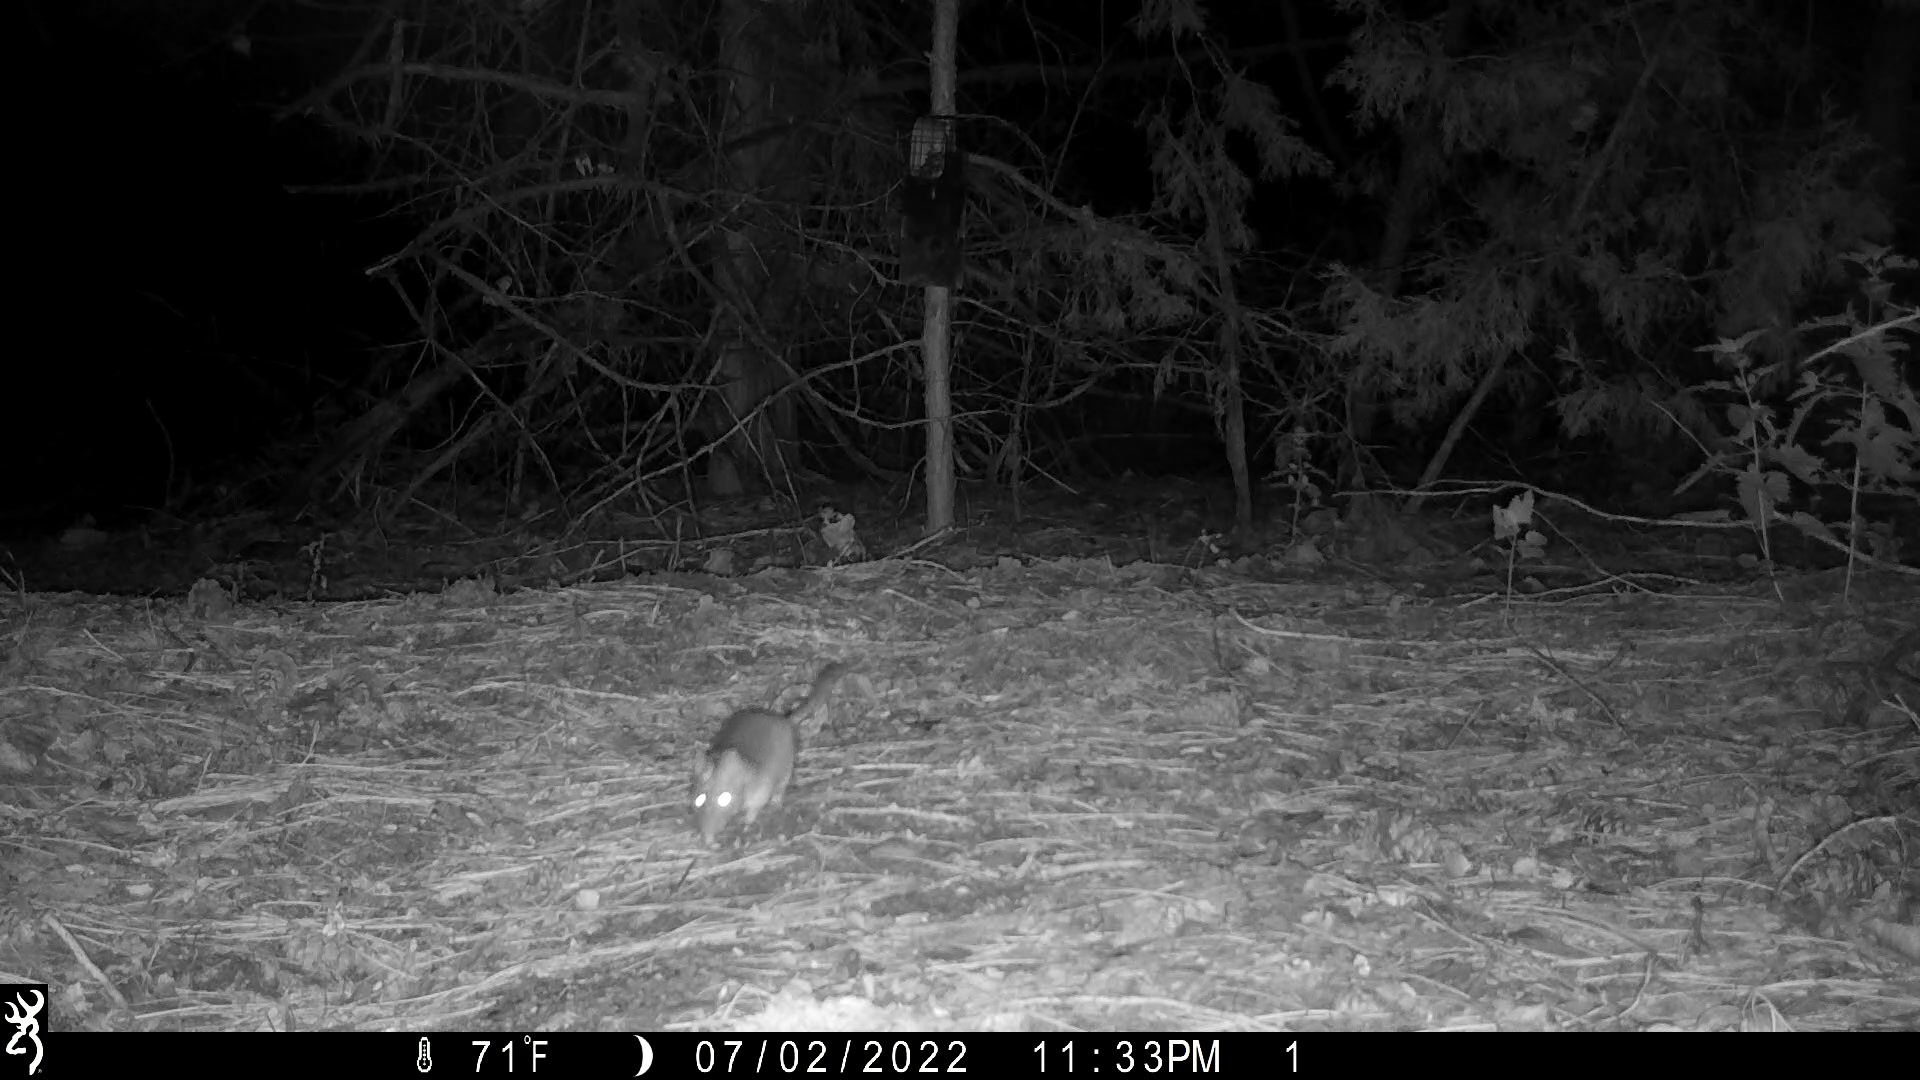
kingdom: Animalia
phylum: Chordata
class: Mammalia
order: Rodentia
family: Cricetidae
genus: Neotoma
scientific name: Neotoma cinerea
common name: Bushy-tailed woodrat
